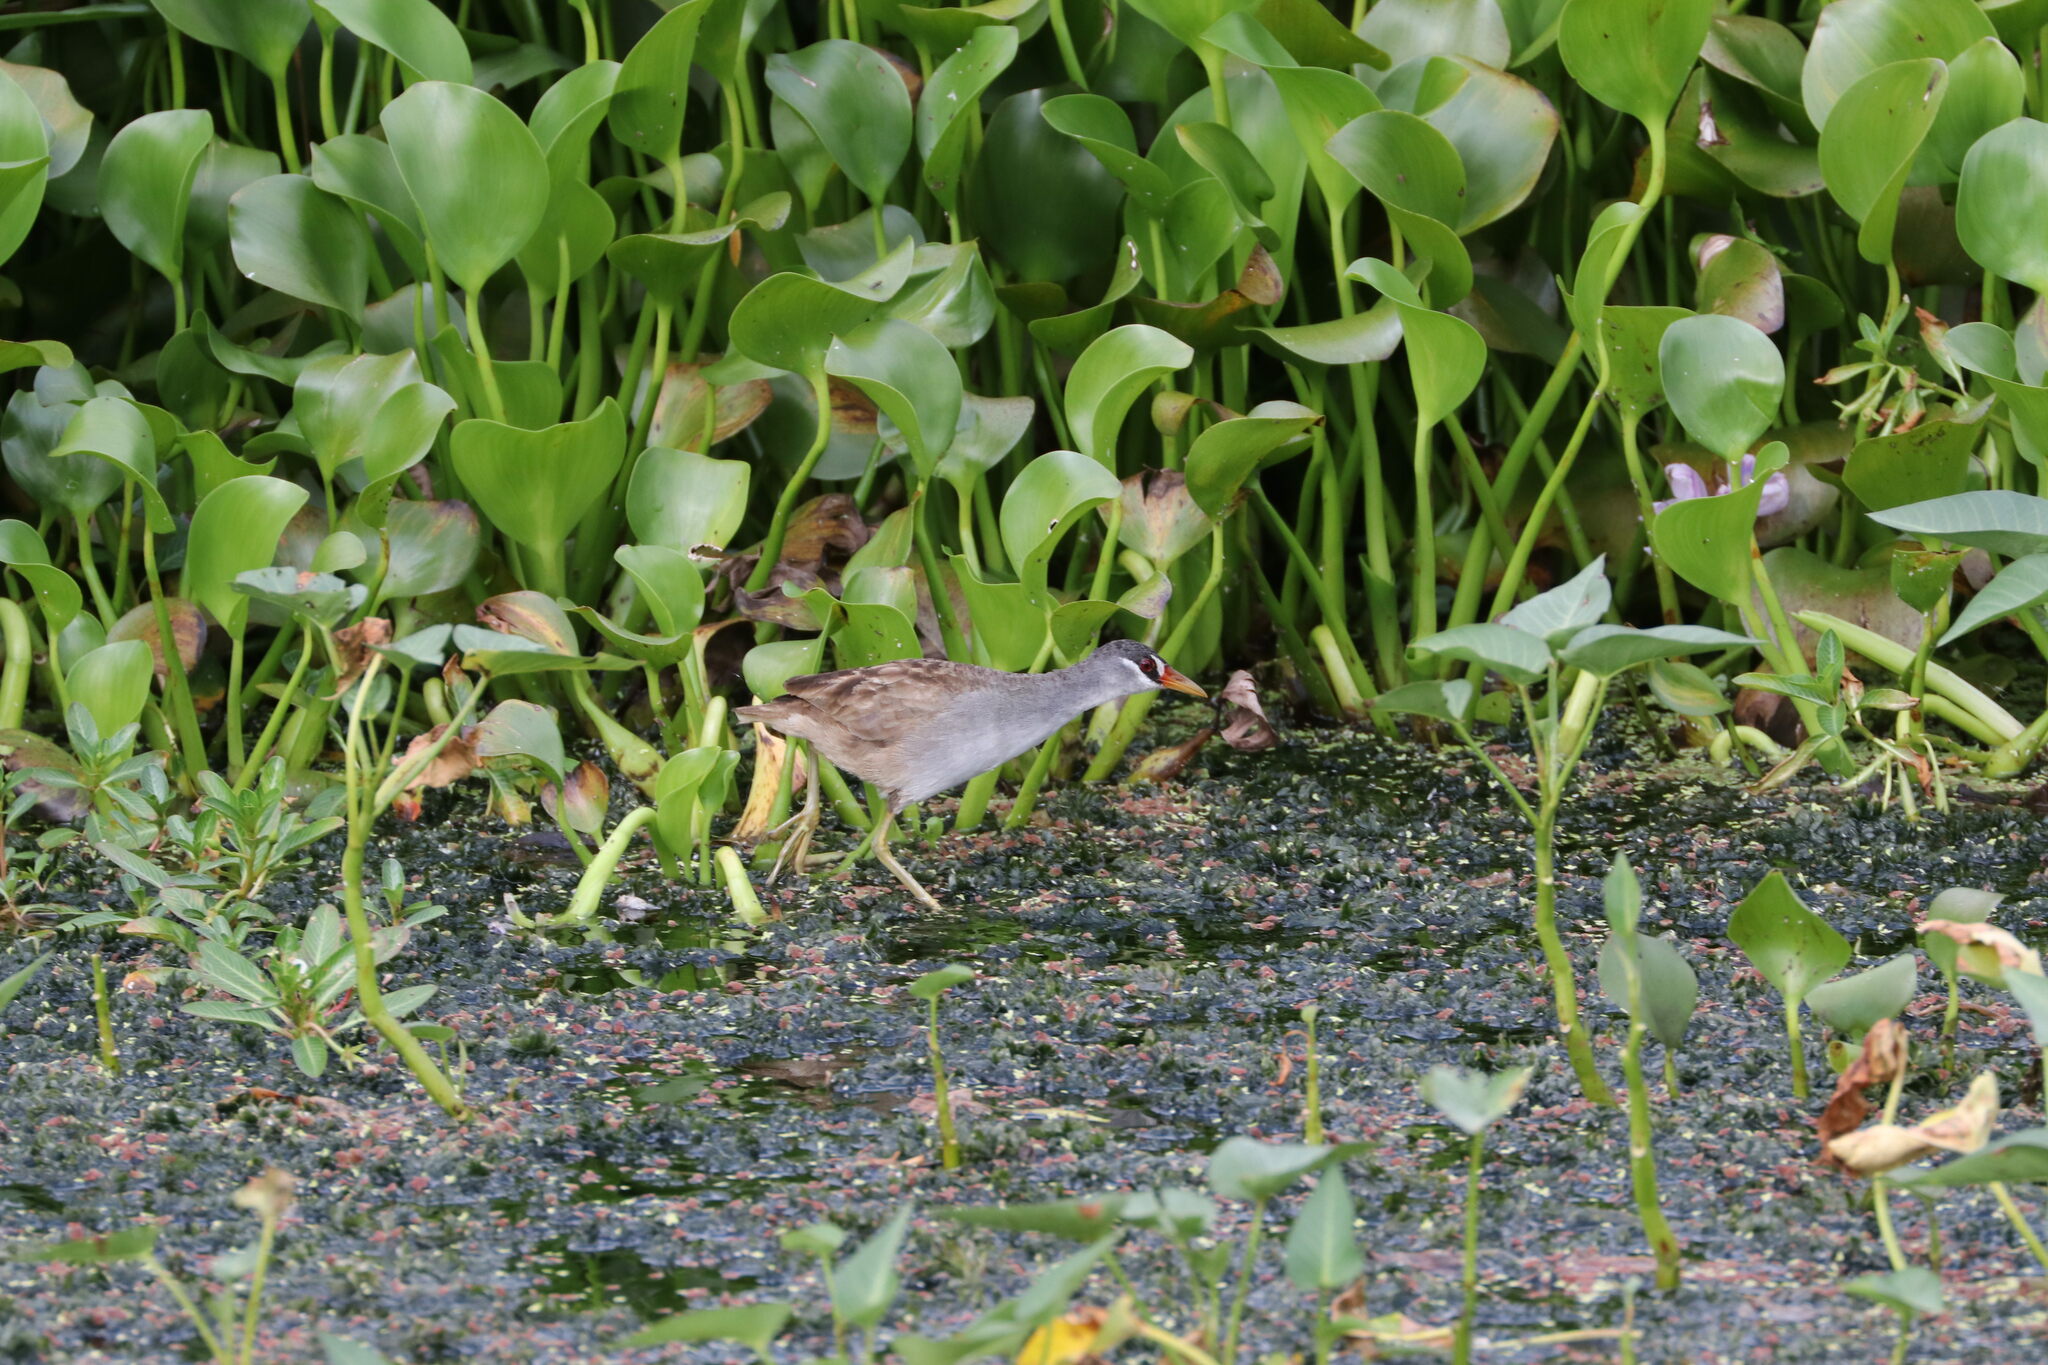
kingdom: Animalia
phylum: Chordata
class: Aves
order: Gruiformes
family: Rallidae
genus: Porzana
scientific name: Porzana cinerea
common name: White-browed crake
